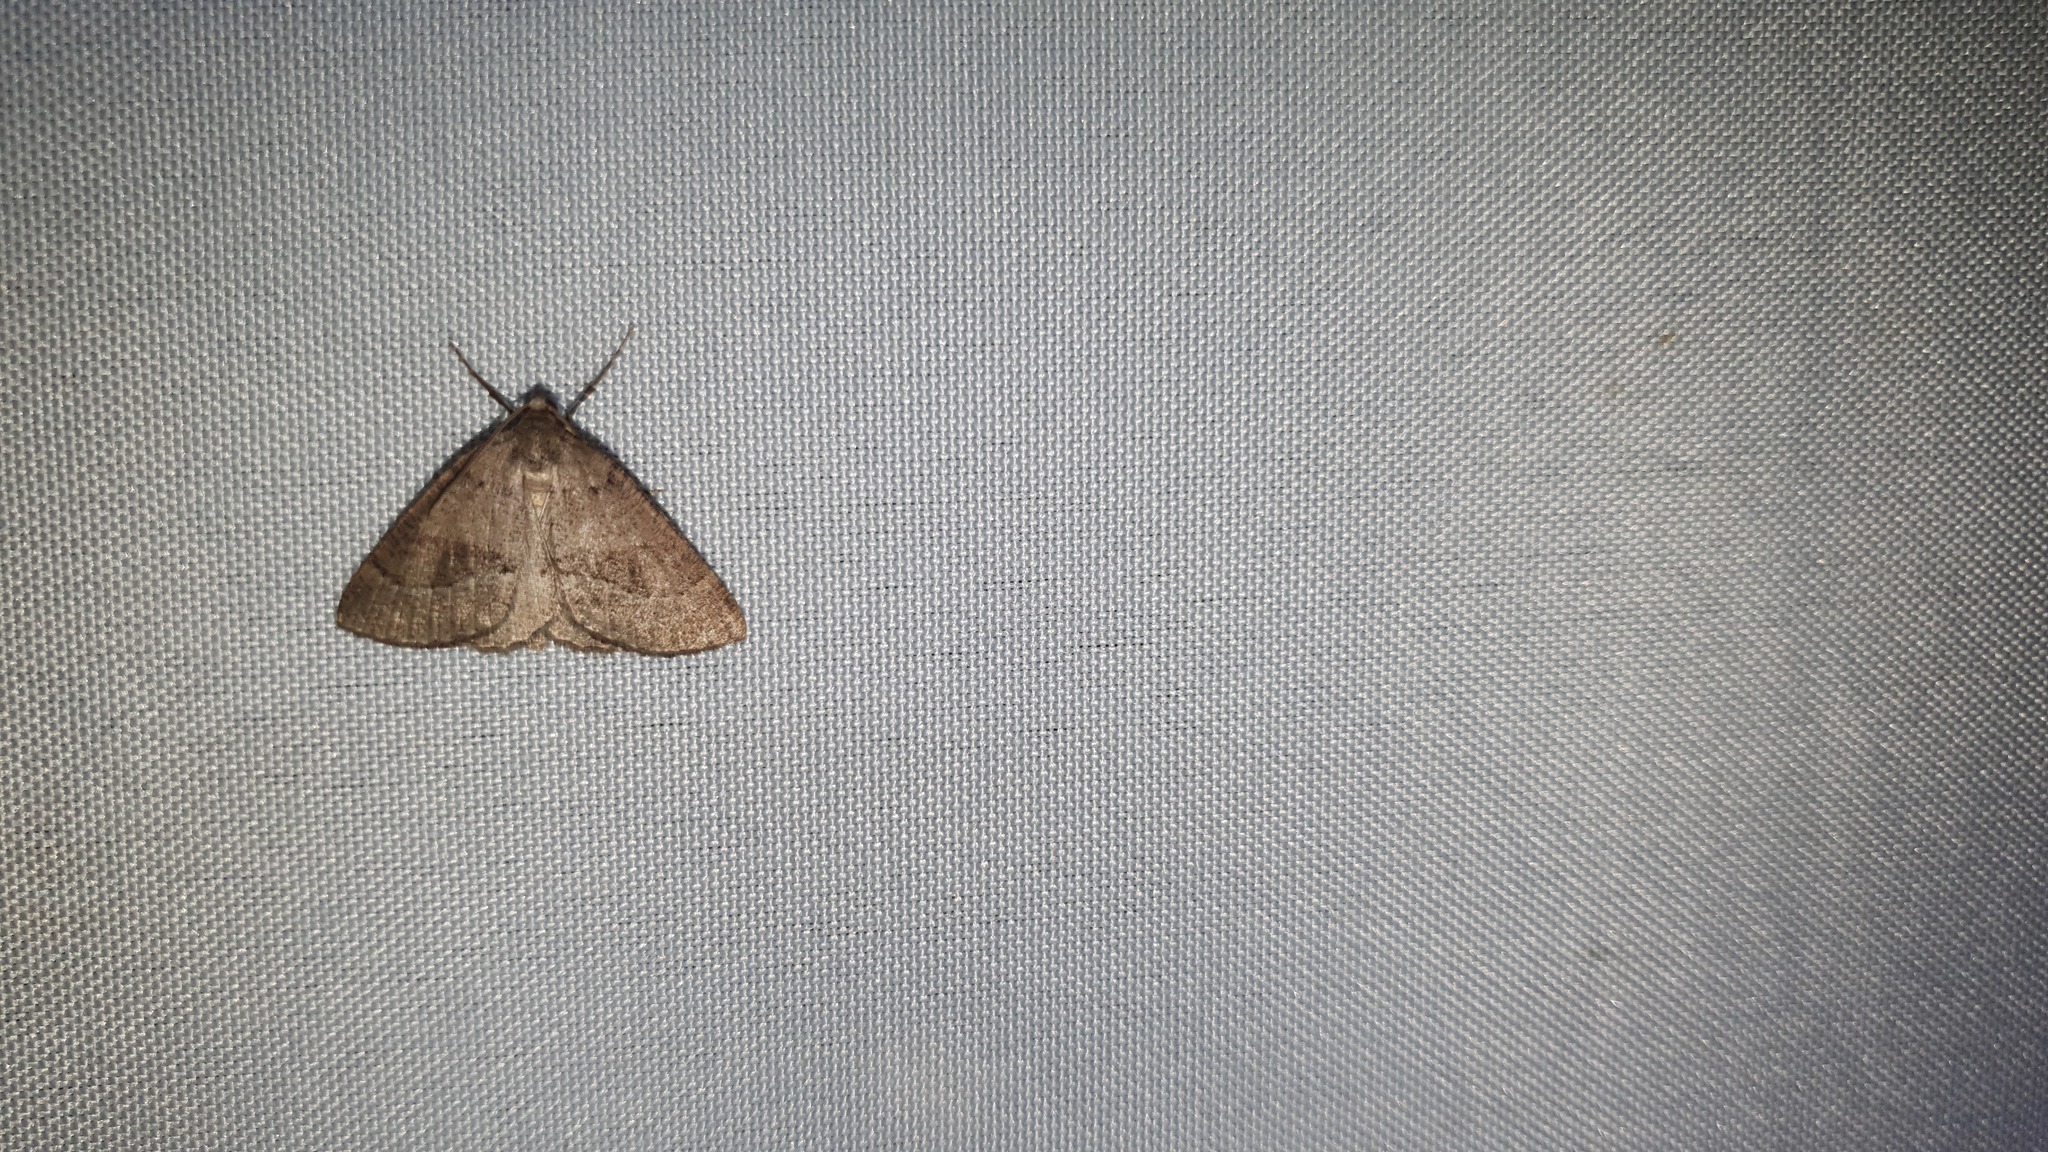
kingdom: Animalia
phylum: Arthropoda
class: Insecta
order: Lepidoptera
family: Geometridae
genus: Pachycnemia
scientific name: Pachycnemia tibiaria
